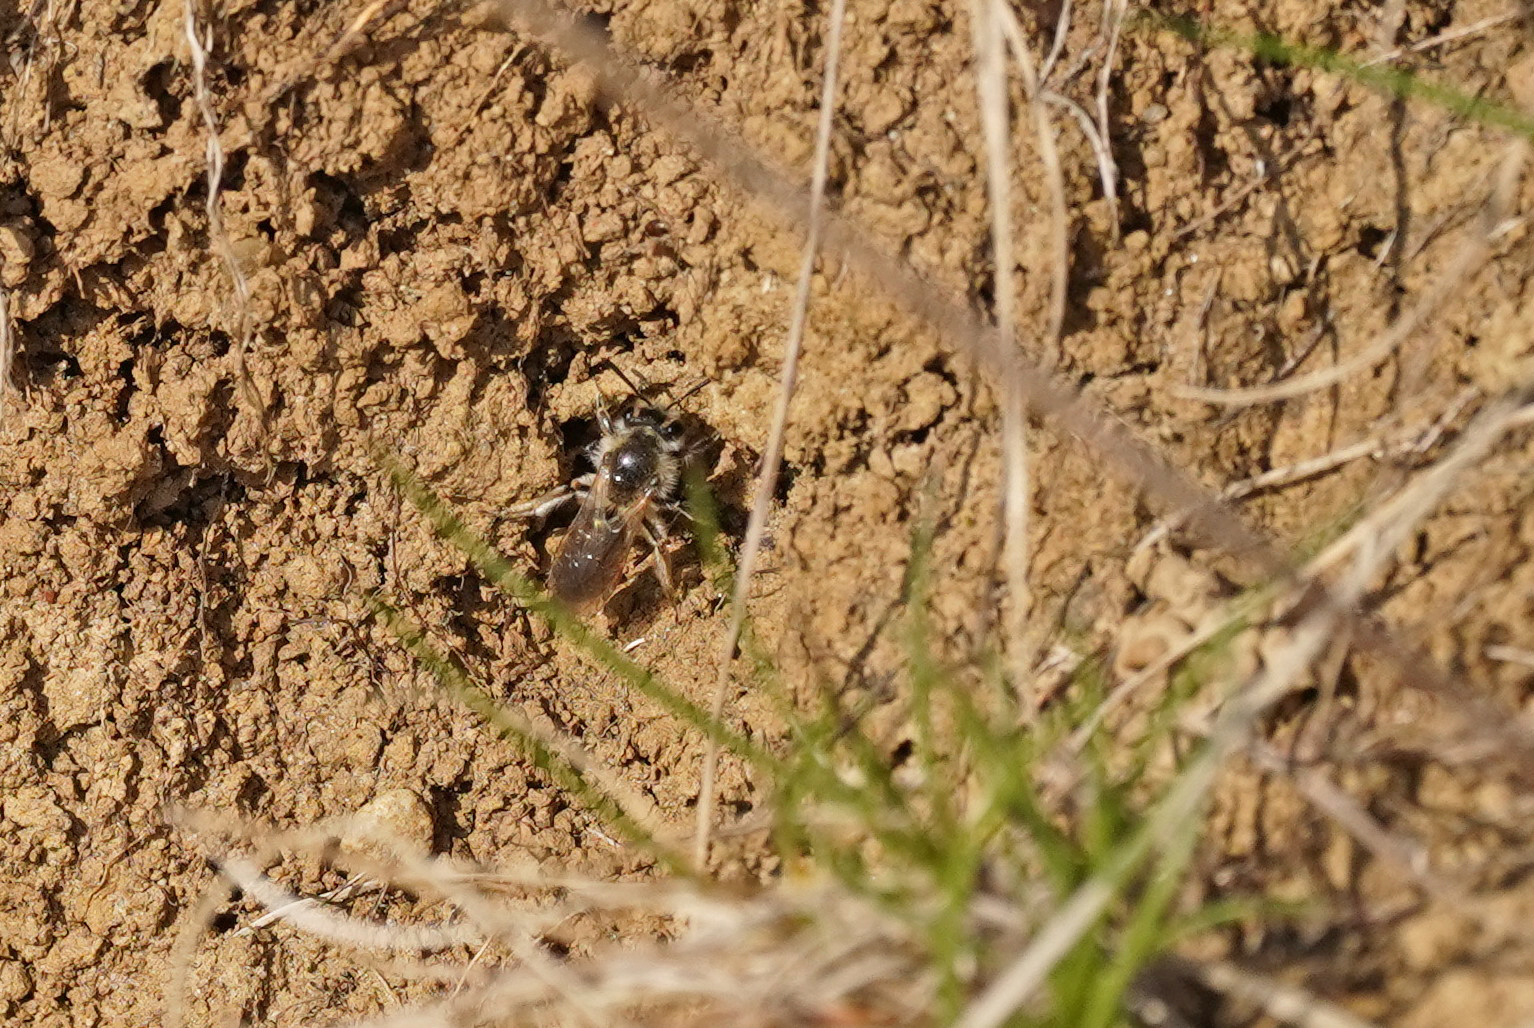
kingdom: Animalia
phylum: Arthropoda
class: Insecta
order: Hymenoptera
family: Andrenidae
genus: Andrena
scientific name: Andrena ventralis
